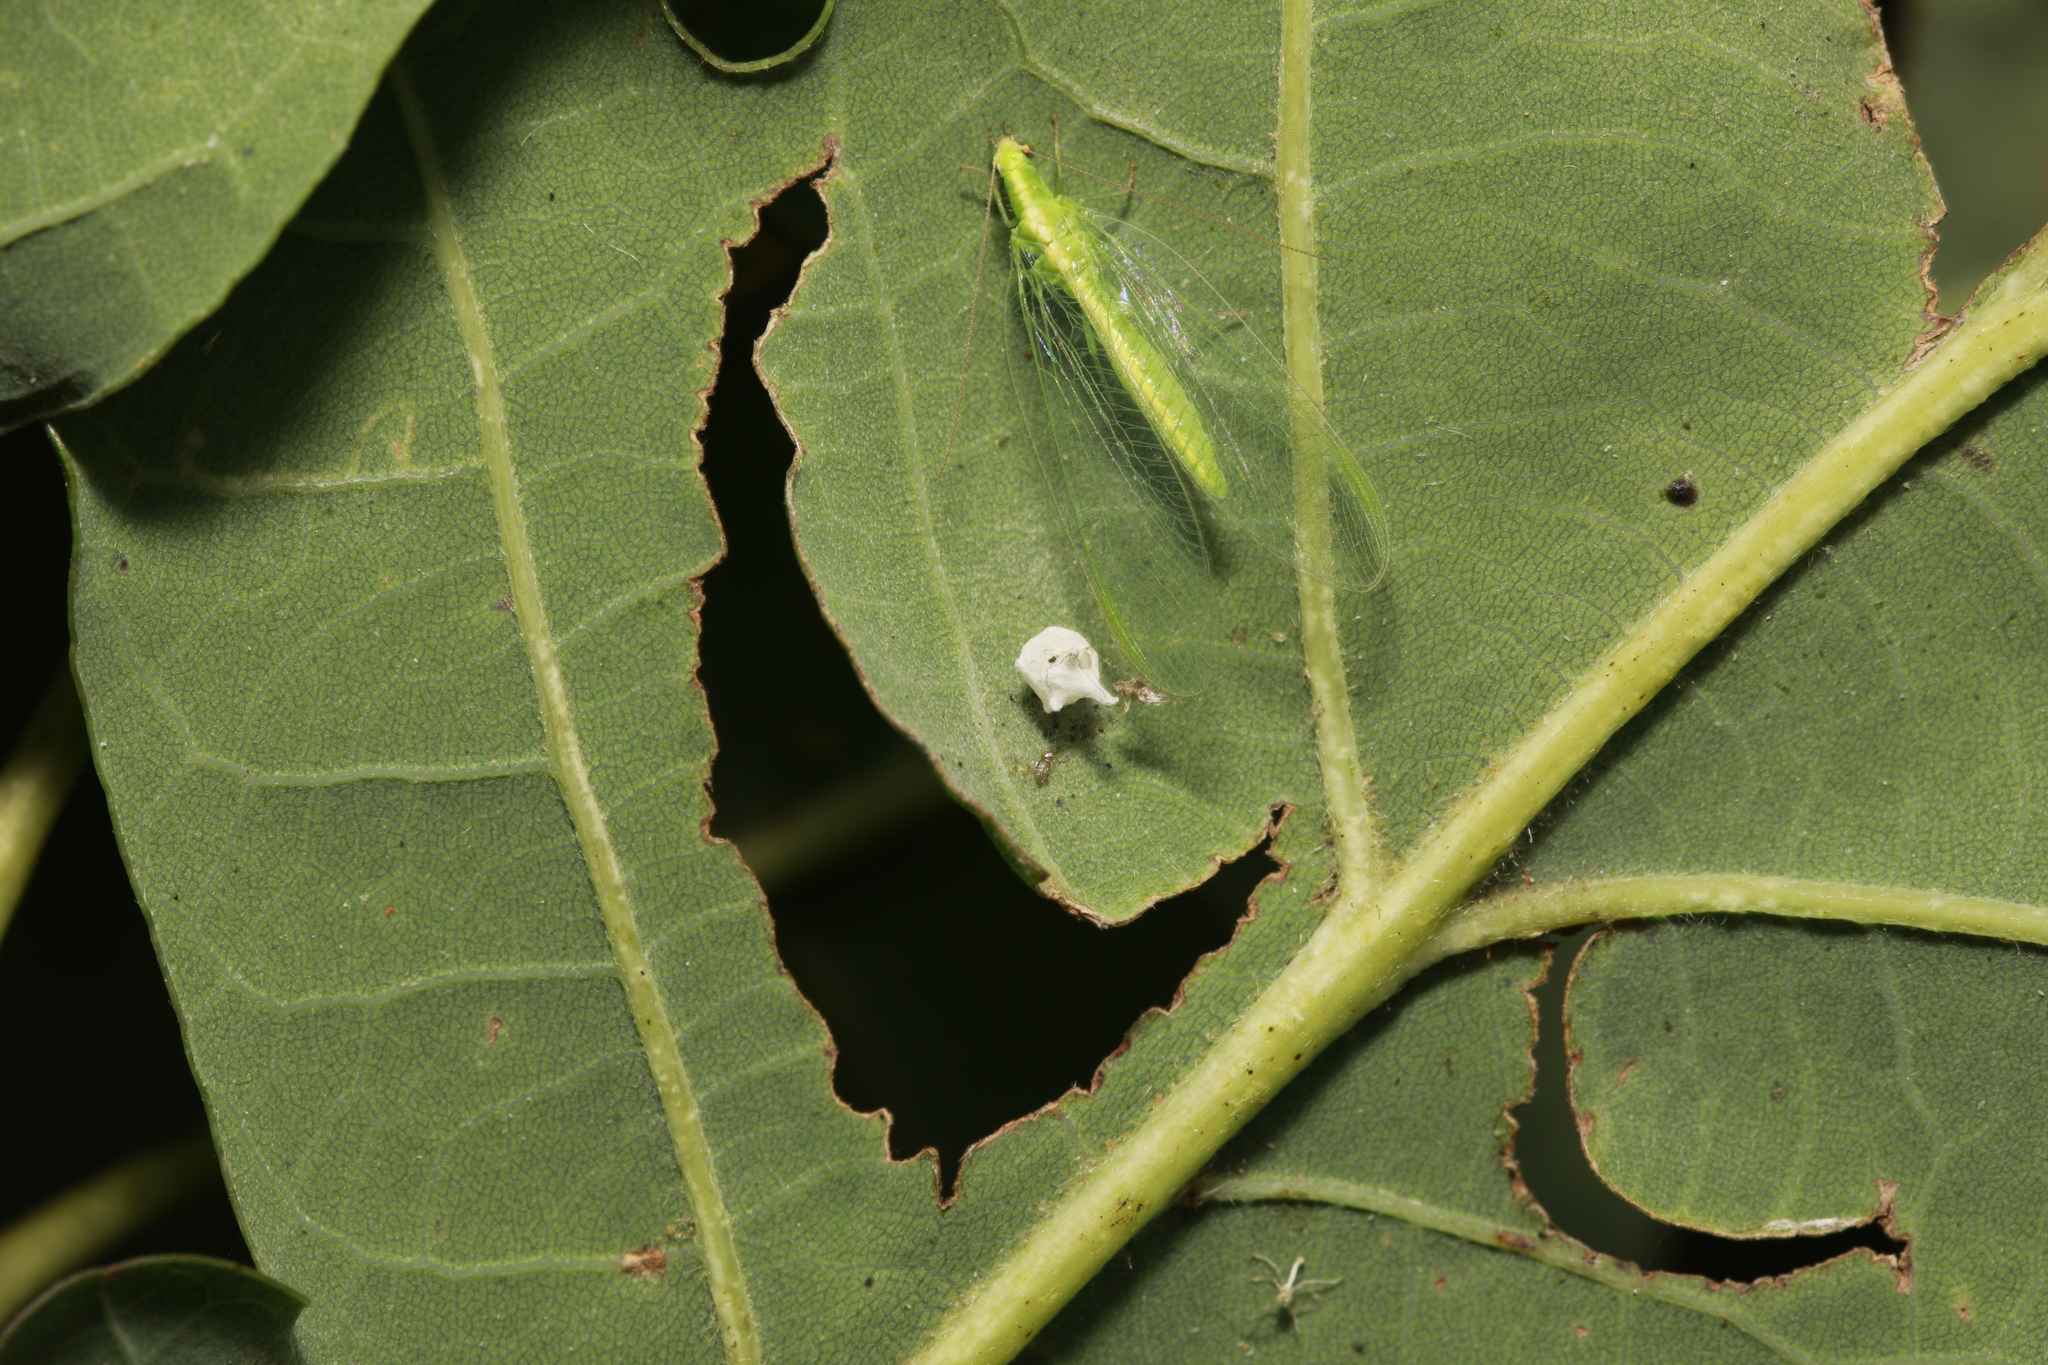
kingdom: Animalia
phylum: Arthropoda
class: Arachnida
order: Araneae
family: Theridiidae
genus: Paidiscura
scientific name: Paidiscura pallens
